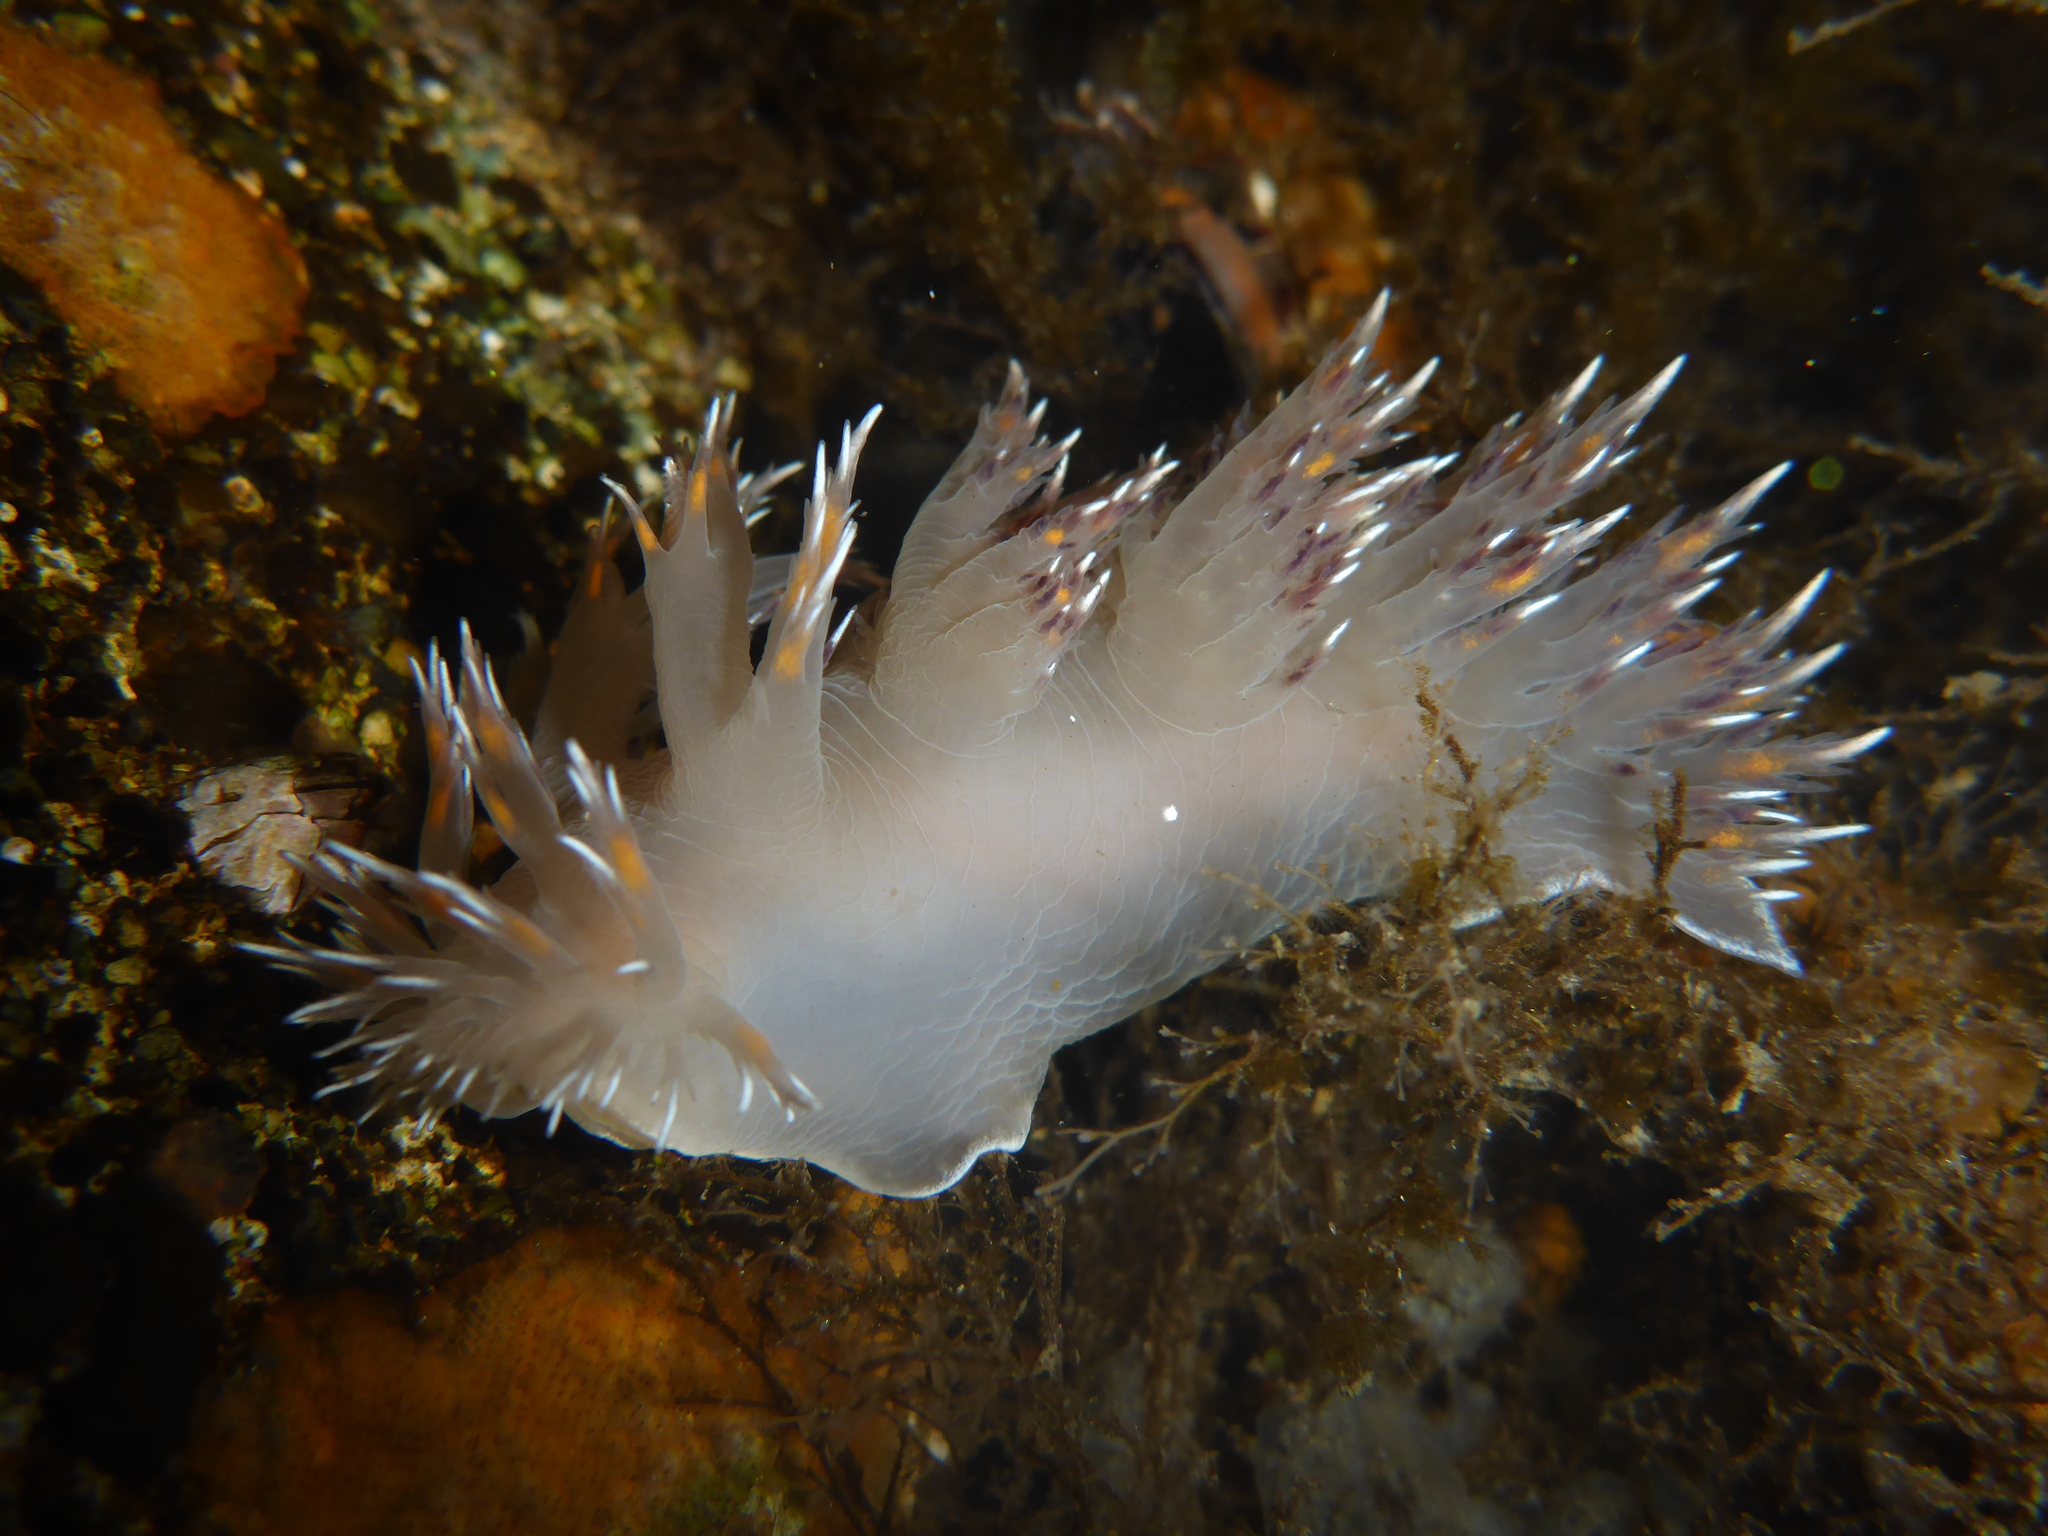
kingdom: Animalia
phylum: Mollusca
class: Gastropoda
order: Nudibranchia
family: Dendronotidae
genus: Dendronotus
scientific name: Dendronotus iris
